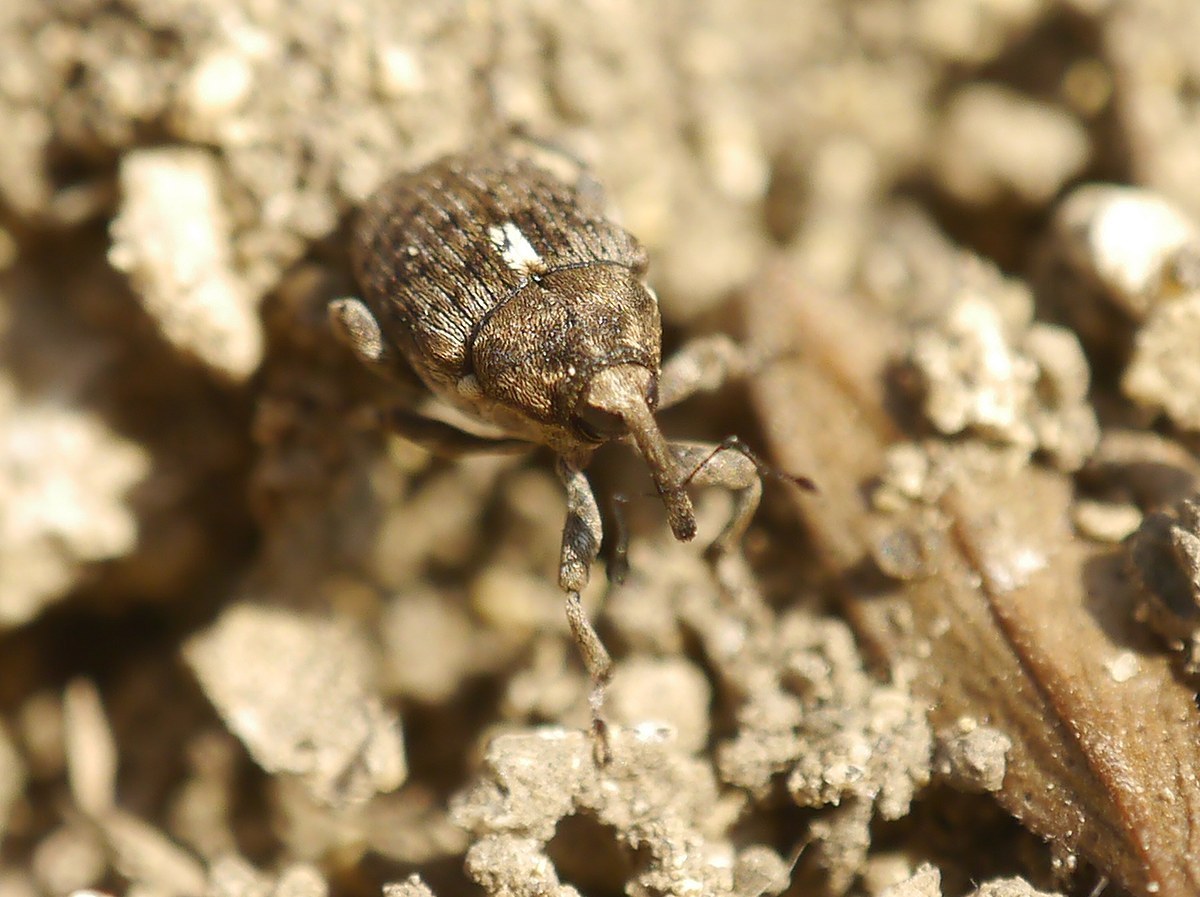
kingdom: Animalia
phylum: Arthropoda
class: Insecta
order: Coleoptera
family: Curculionidae
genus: Ethelcus
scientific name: Ethelcus denticulatus
